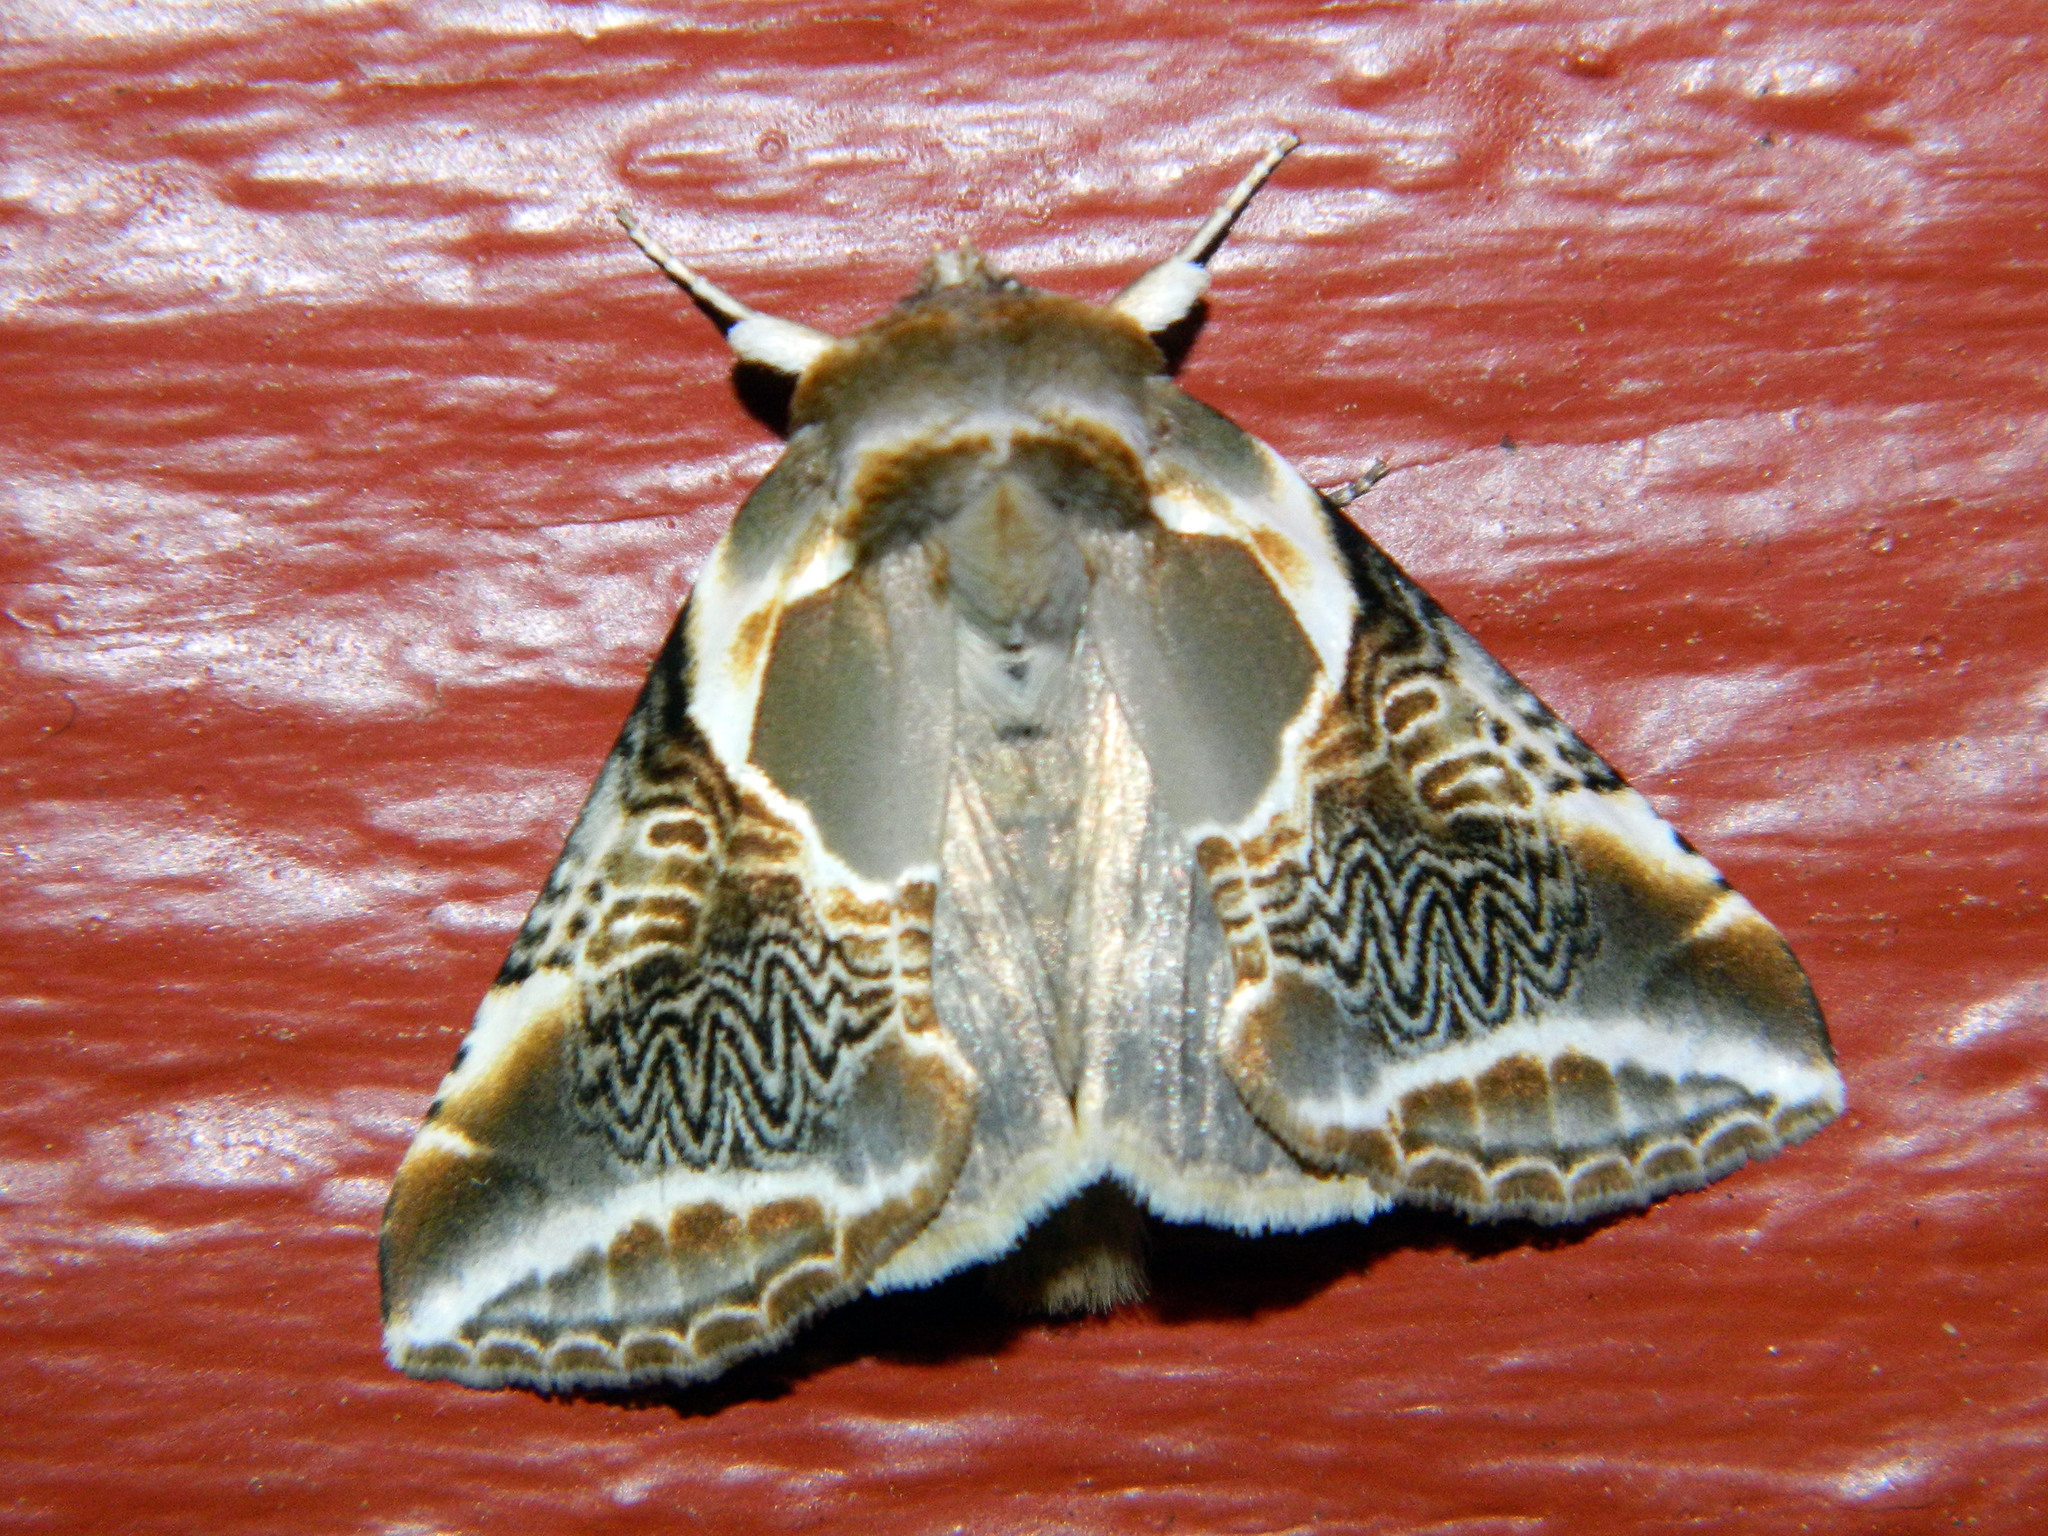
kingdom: Animalia
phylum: Arthropoda
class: Insecta
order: Lepidoptera
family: Drepanidae
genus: Habrosyne
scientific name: Habrosyne scripta
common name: Lettered habrosyne moth
